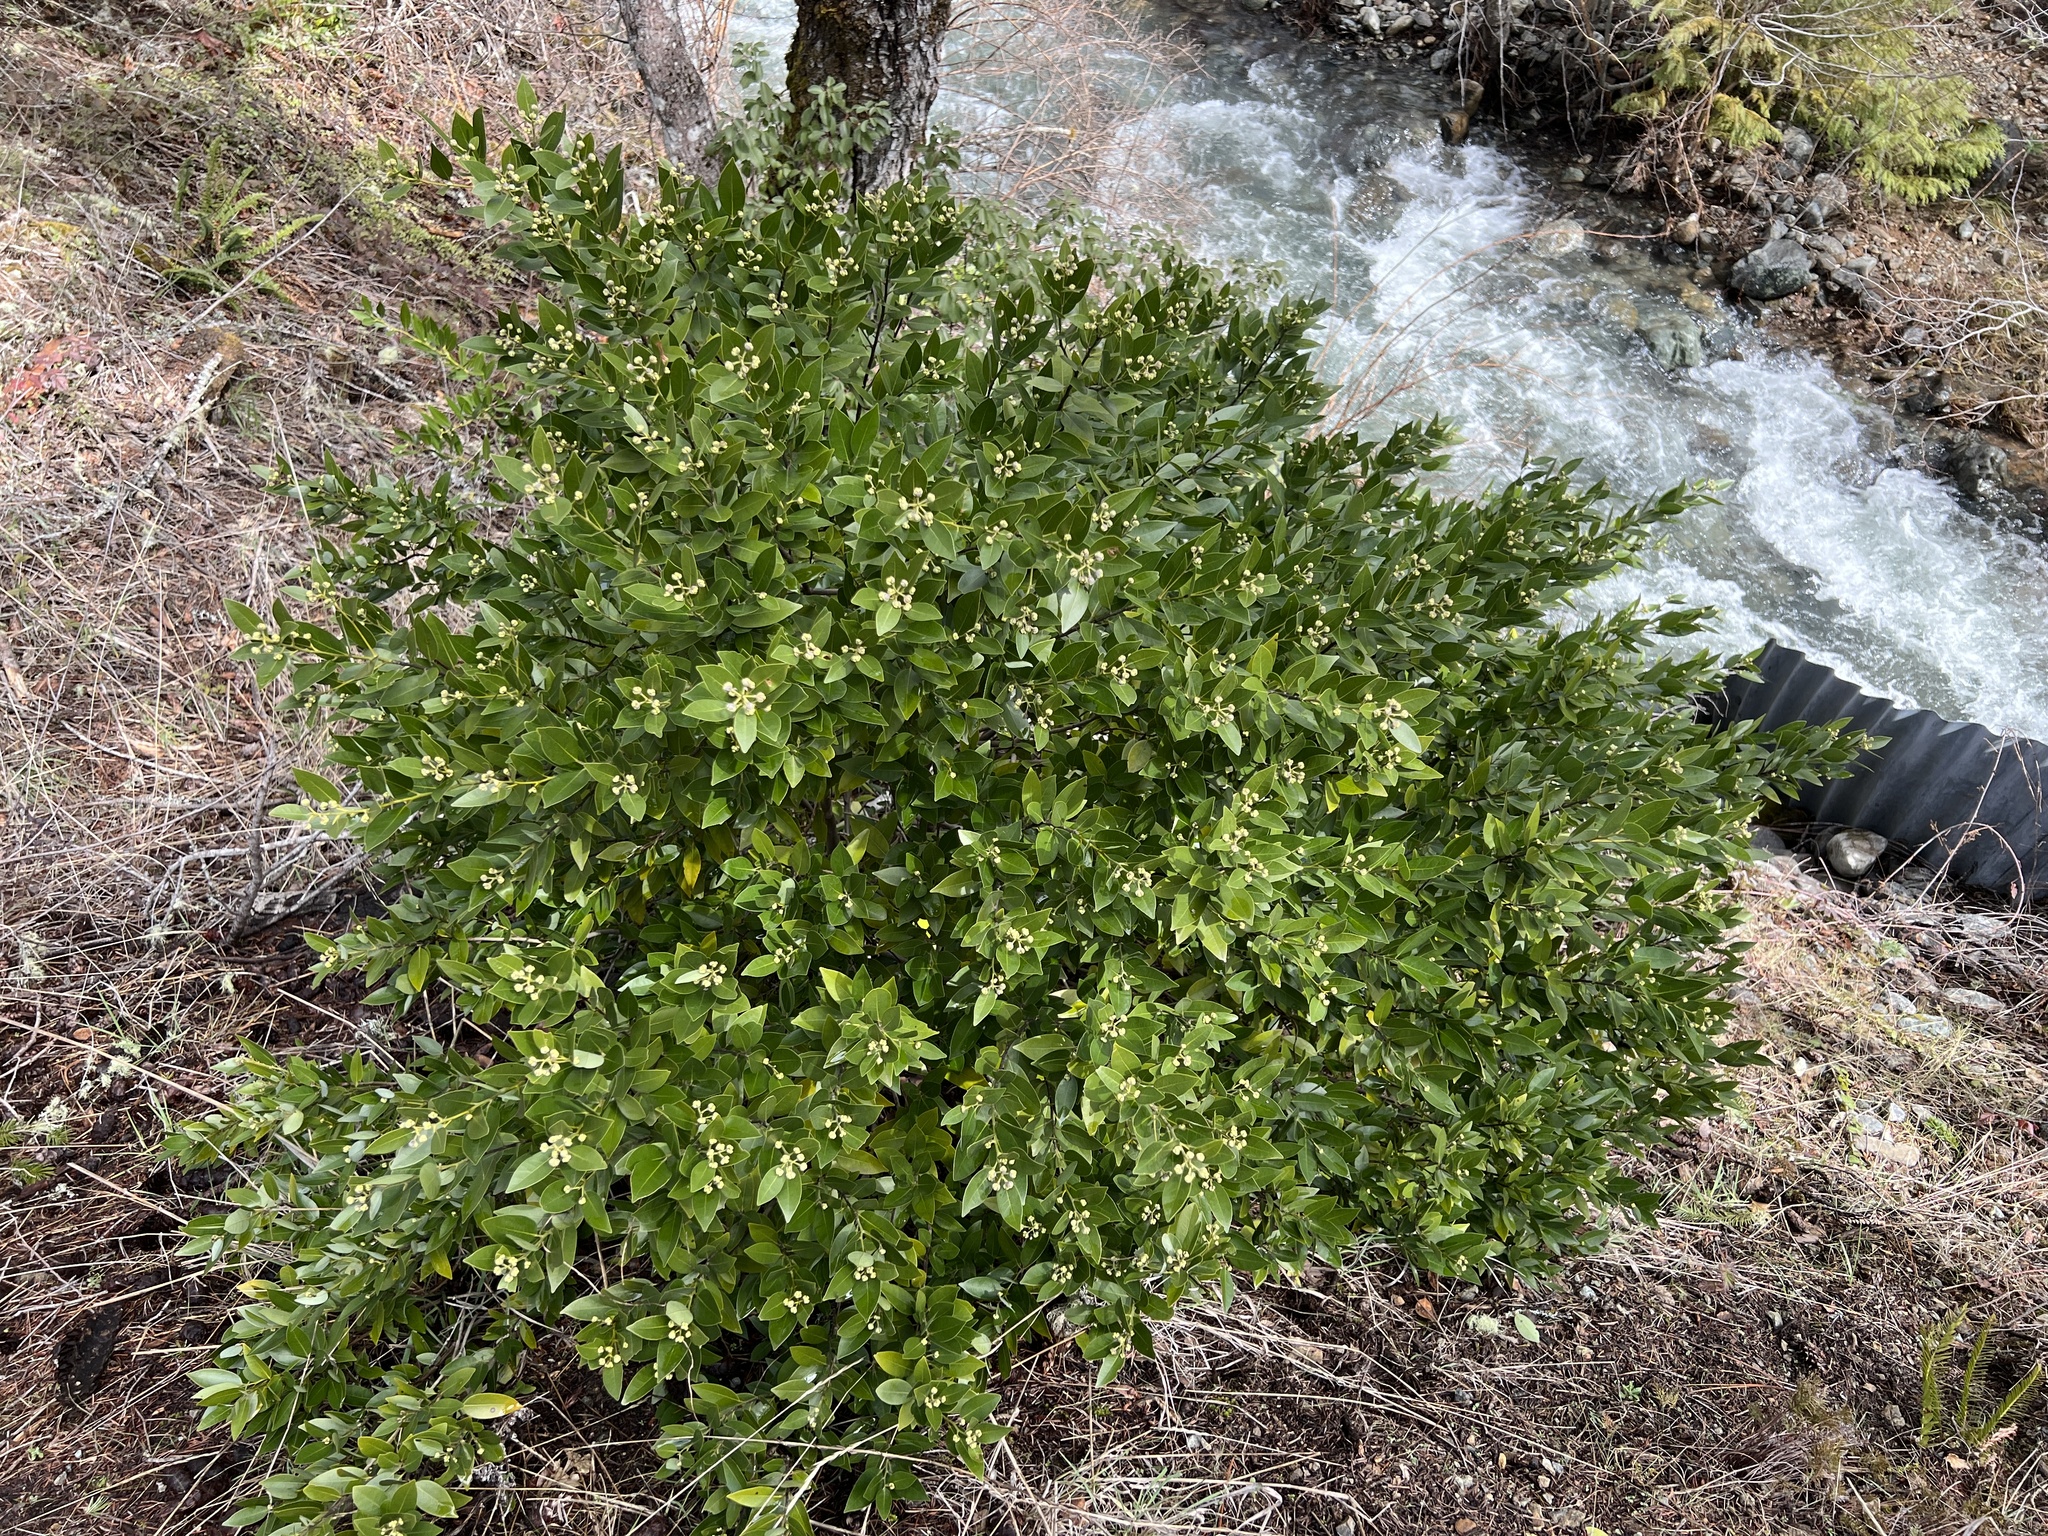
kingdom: Plantae
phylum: Tracheophyta
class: Magnoliopsida
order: Laurales
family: Lauraceae
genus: Umbellularia
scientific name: Umbellularia californica
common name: California bay
